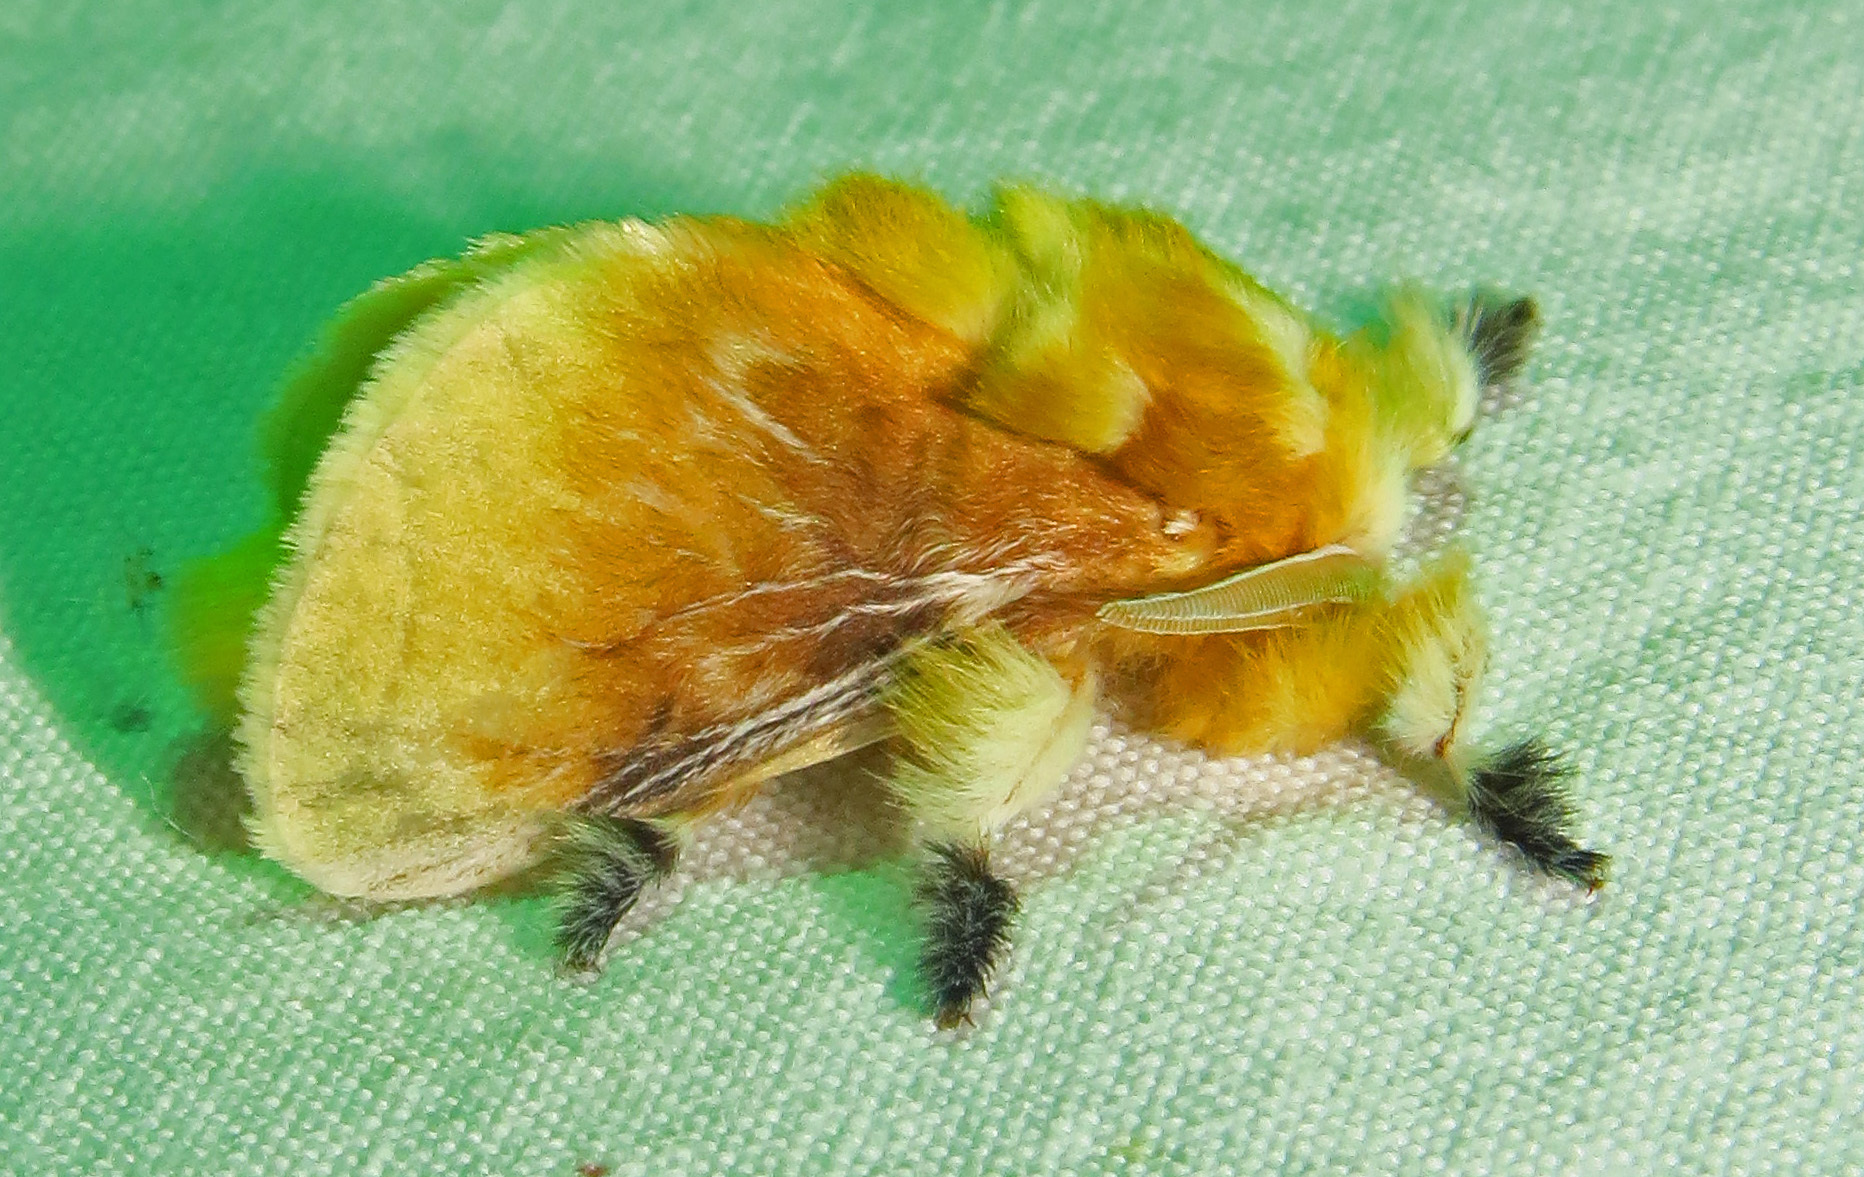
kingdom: Animalia
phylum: Arthropoda
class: Insecta
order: Lepidoptera
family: Megalopygidae
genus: Megalopyge
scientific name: Megalopyge opercularis
